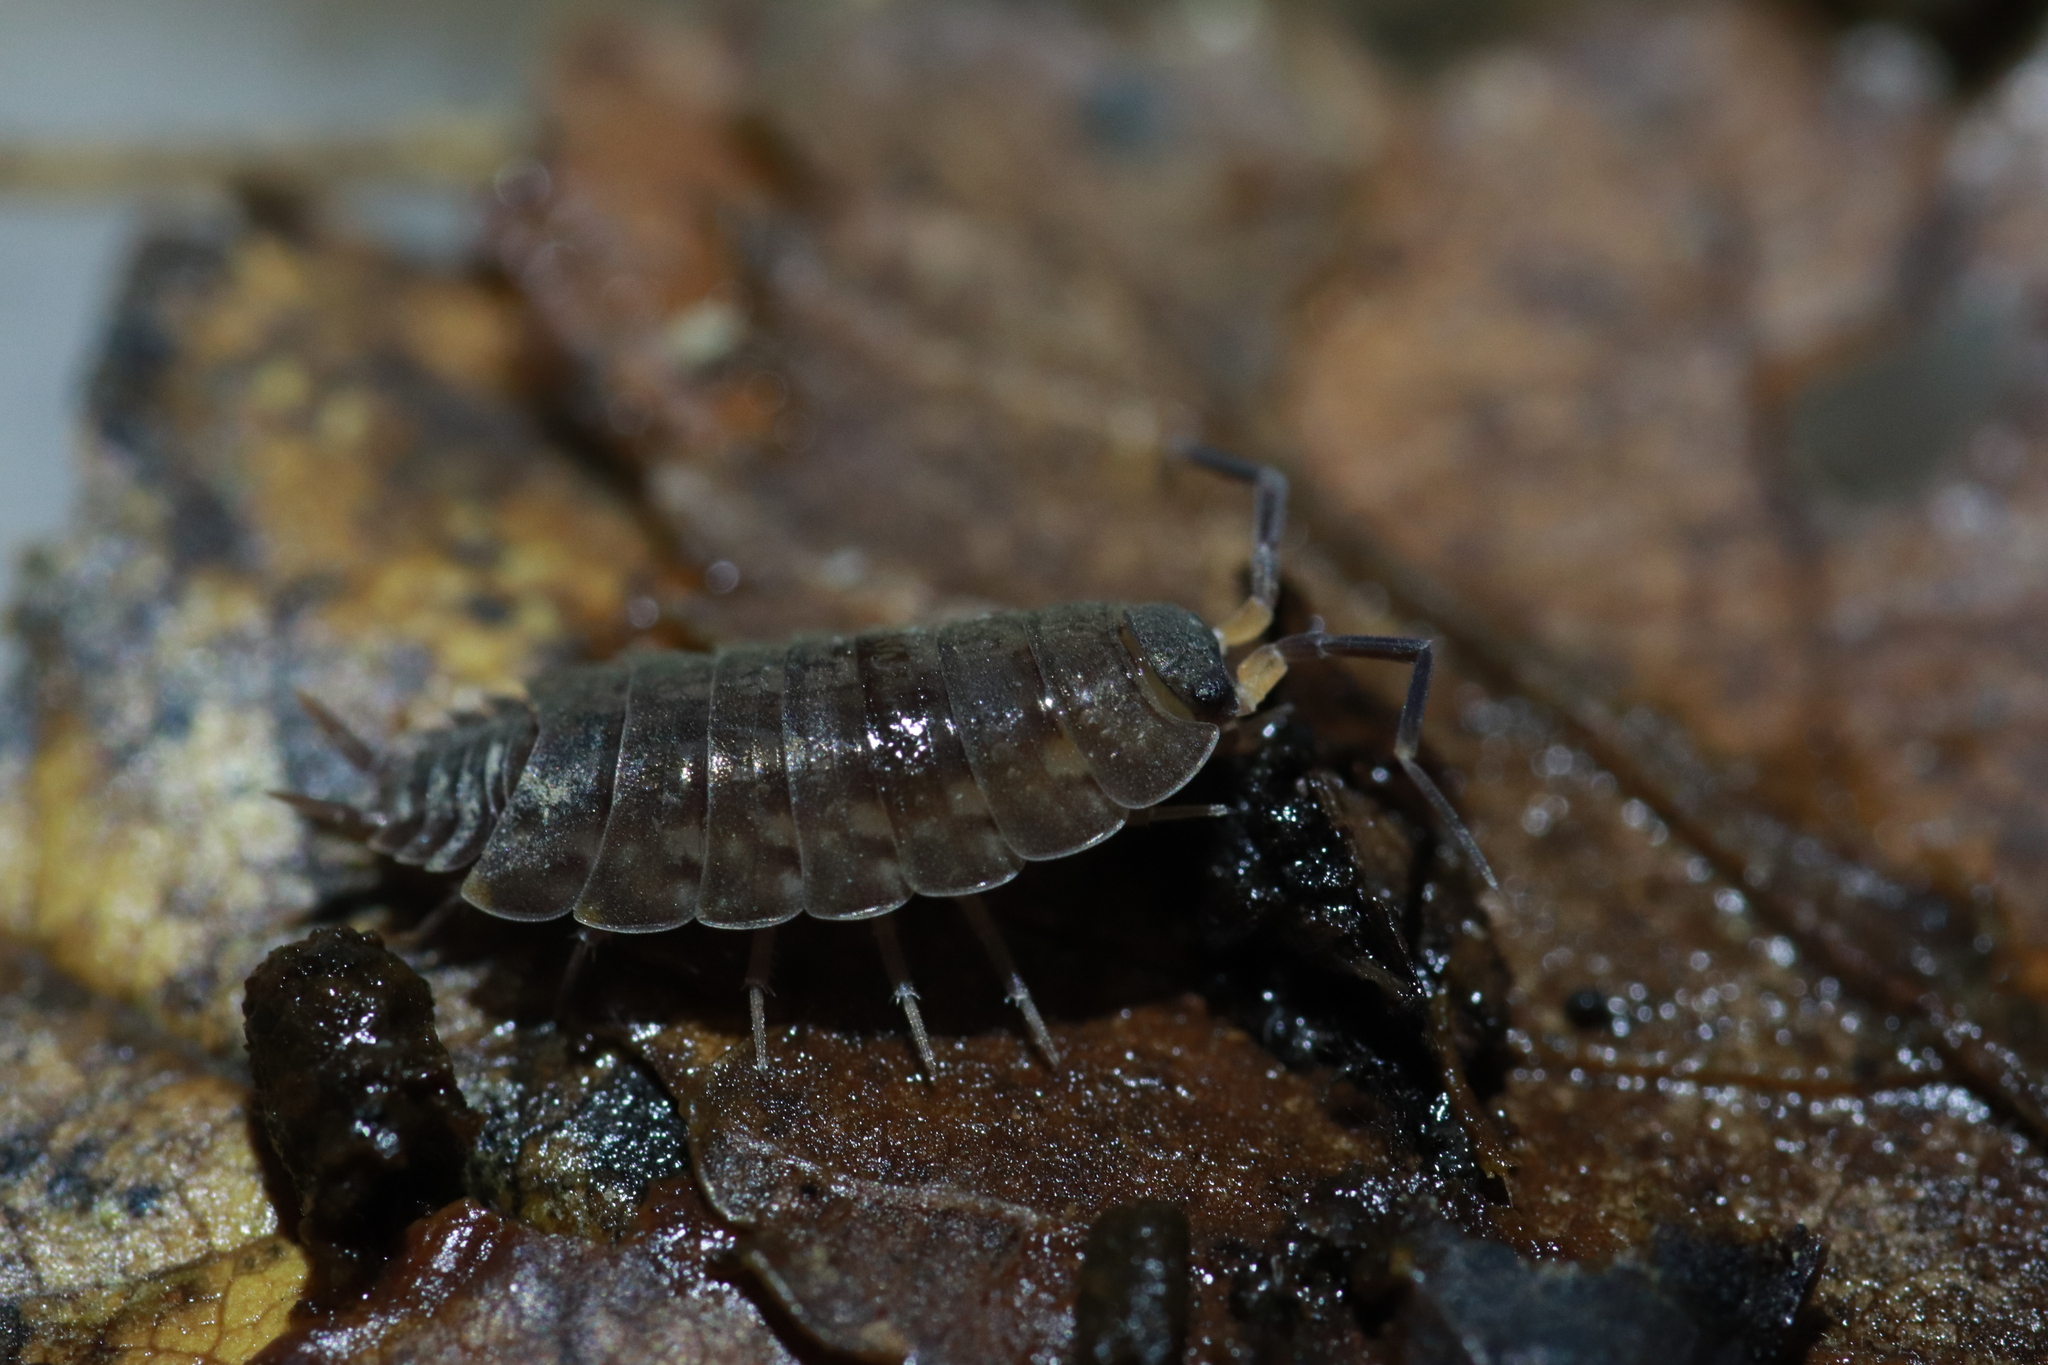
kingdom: Animalia
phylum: Arthropoda
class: Malacostraca
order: Isopoda
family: Agnaridae
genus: Orthometopon
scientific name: Orthometopon planum
